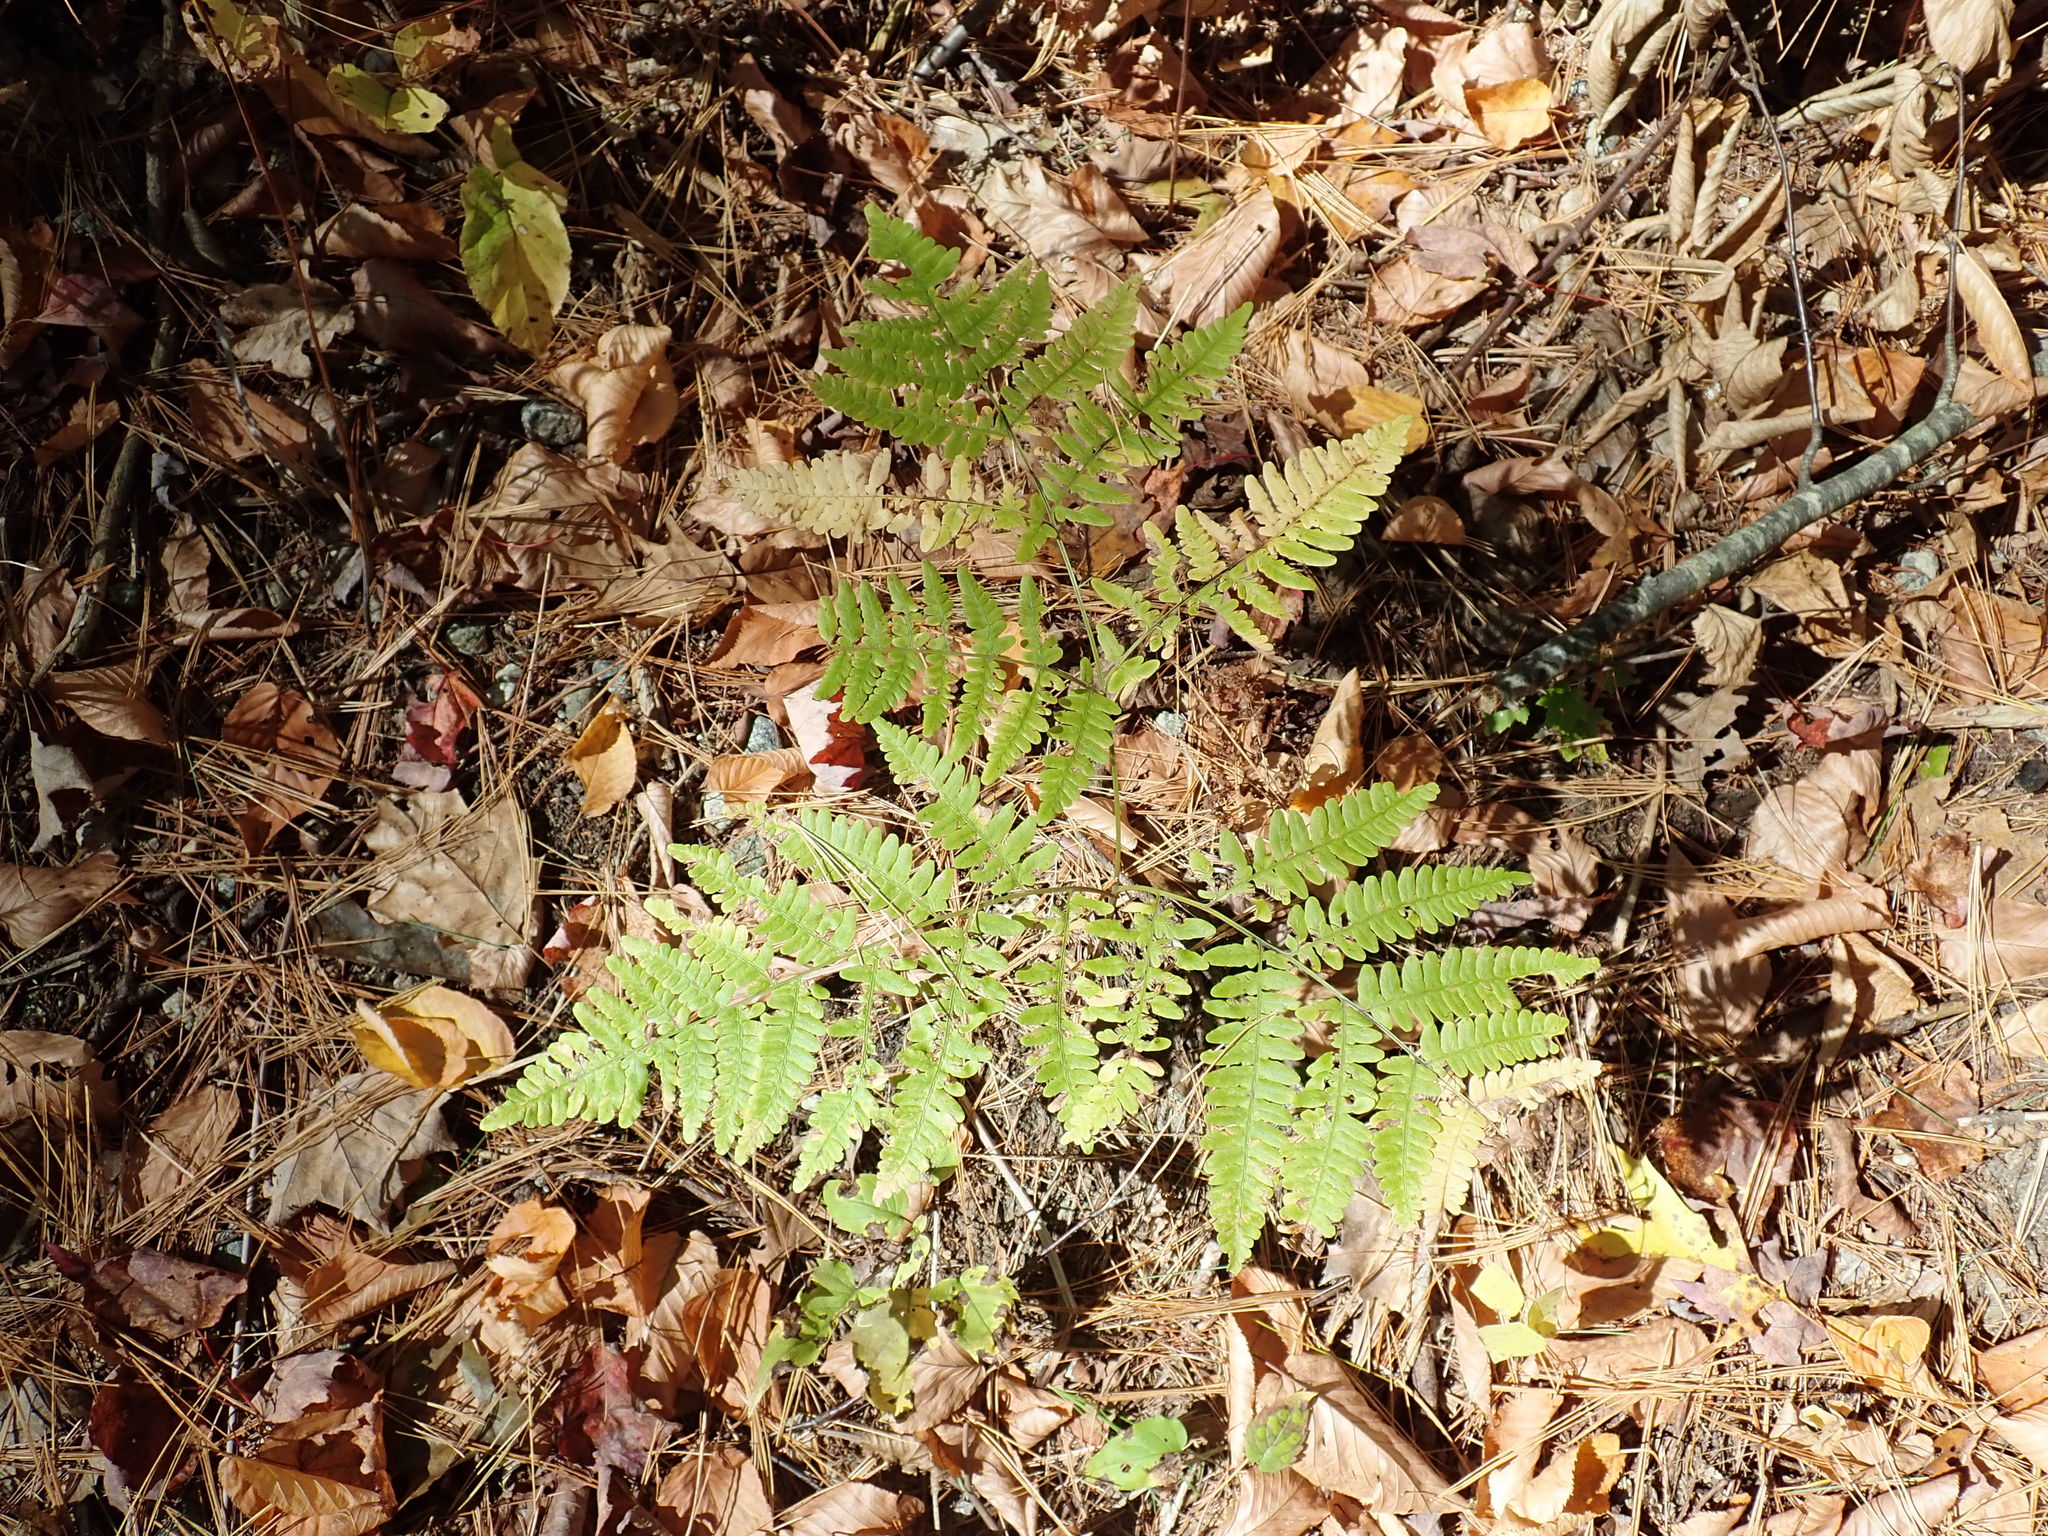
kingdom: Plantae
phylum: Tracheophyta
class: Polypodiopsida
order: Polypodiales
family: Dennstaedtiaceae
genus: Pteridium
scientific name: Pteridium aquilinum
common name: Bracken
